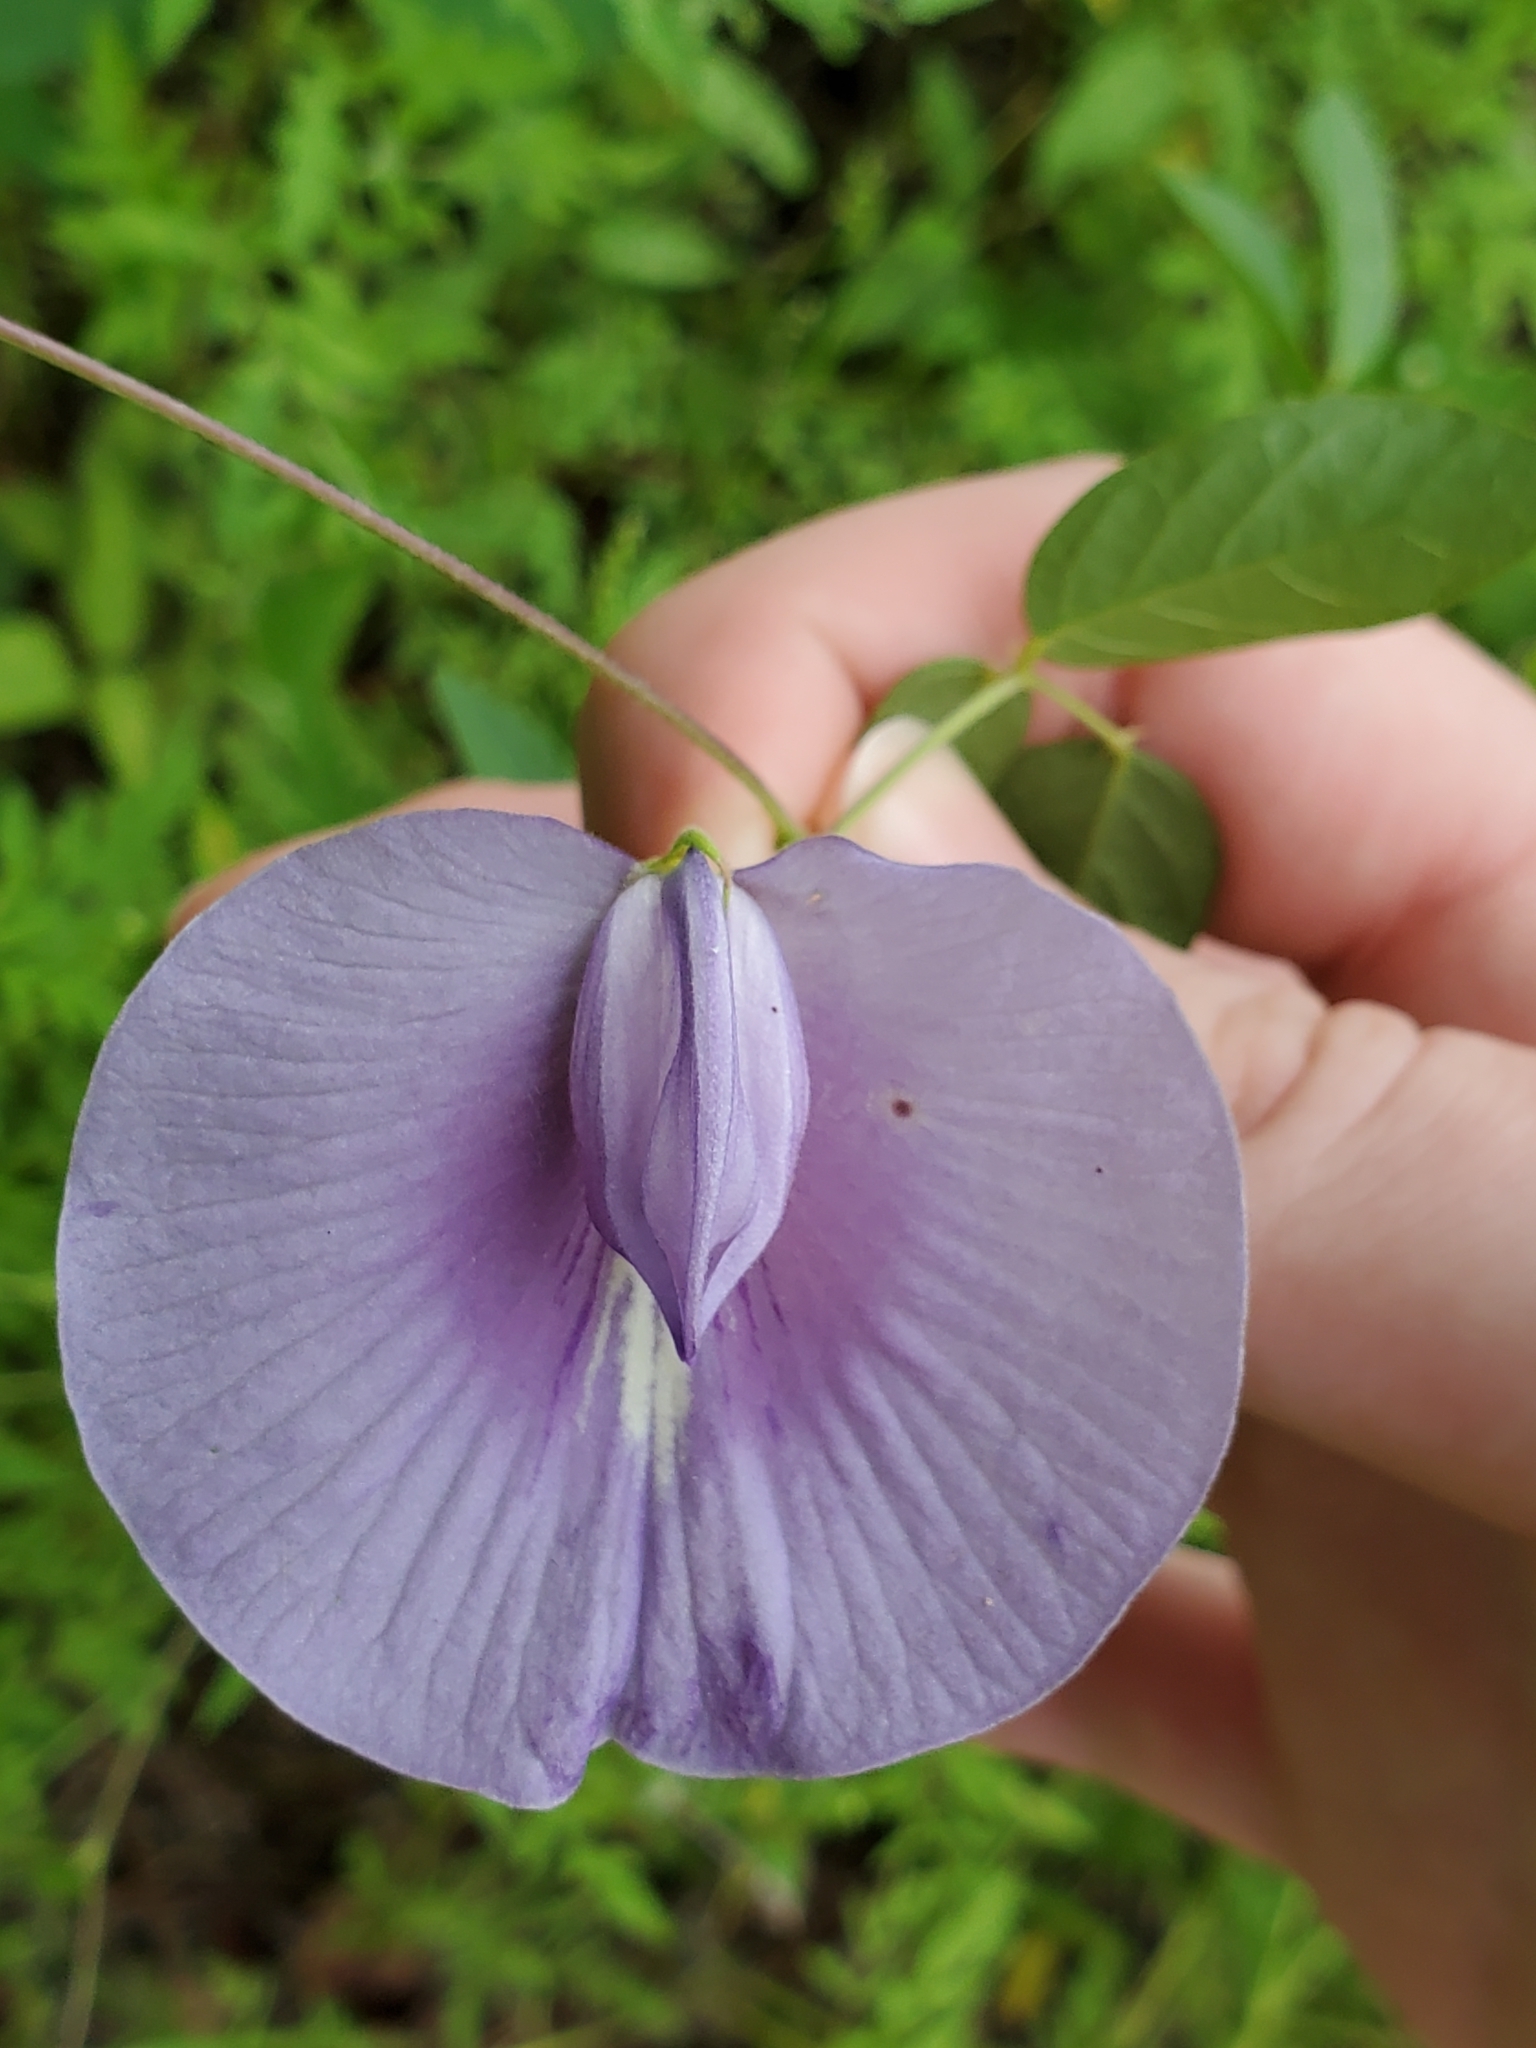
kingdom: Plantae
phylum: Tracheophyta
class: Magnoliopsida
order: Fabales
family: Fabaceae
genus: Centrosema
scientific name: Centrosema virginianum
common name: Butterfly-pea
